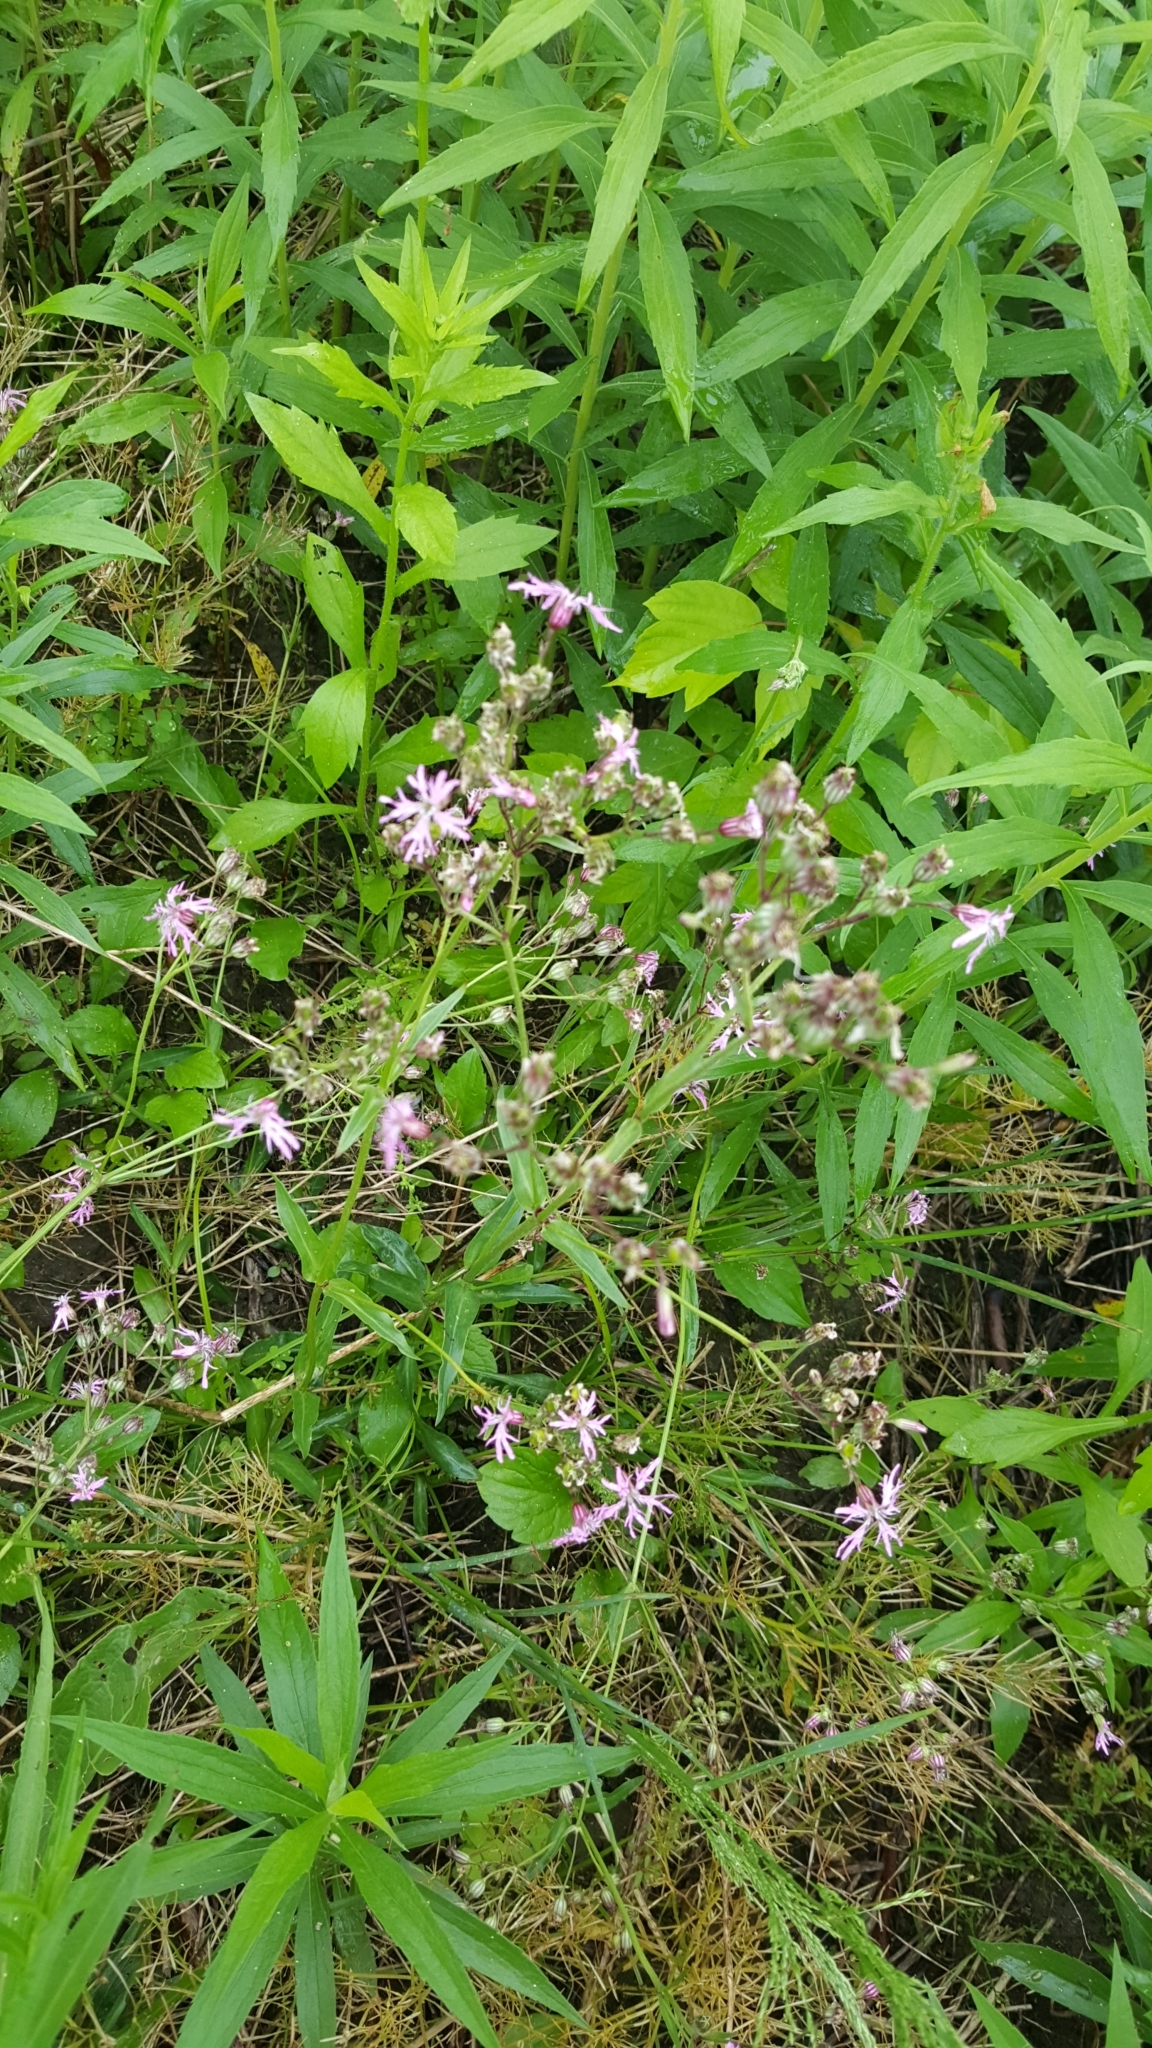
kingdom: Plantae
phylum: Tracheophyta
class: Magnoliopsida
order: Caryophyllales
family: Caryophyllaceae
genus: Silene
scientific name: Silene flos-cuculi
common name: Ragged-robin
